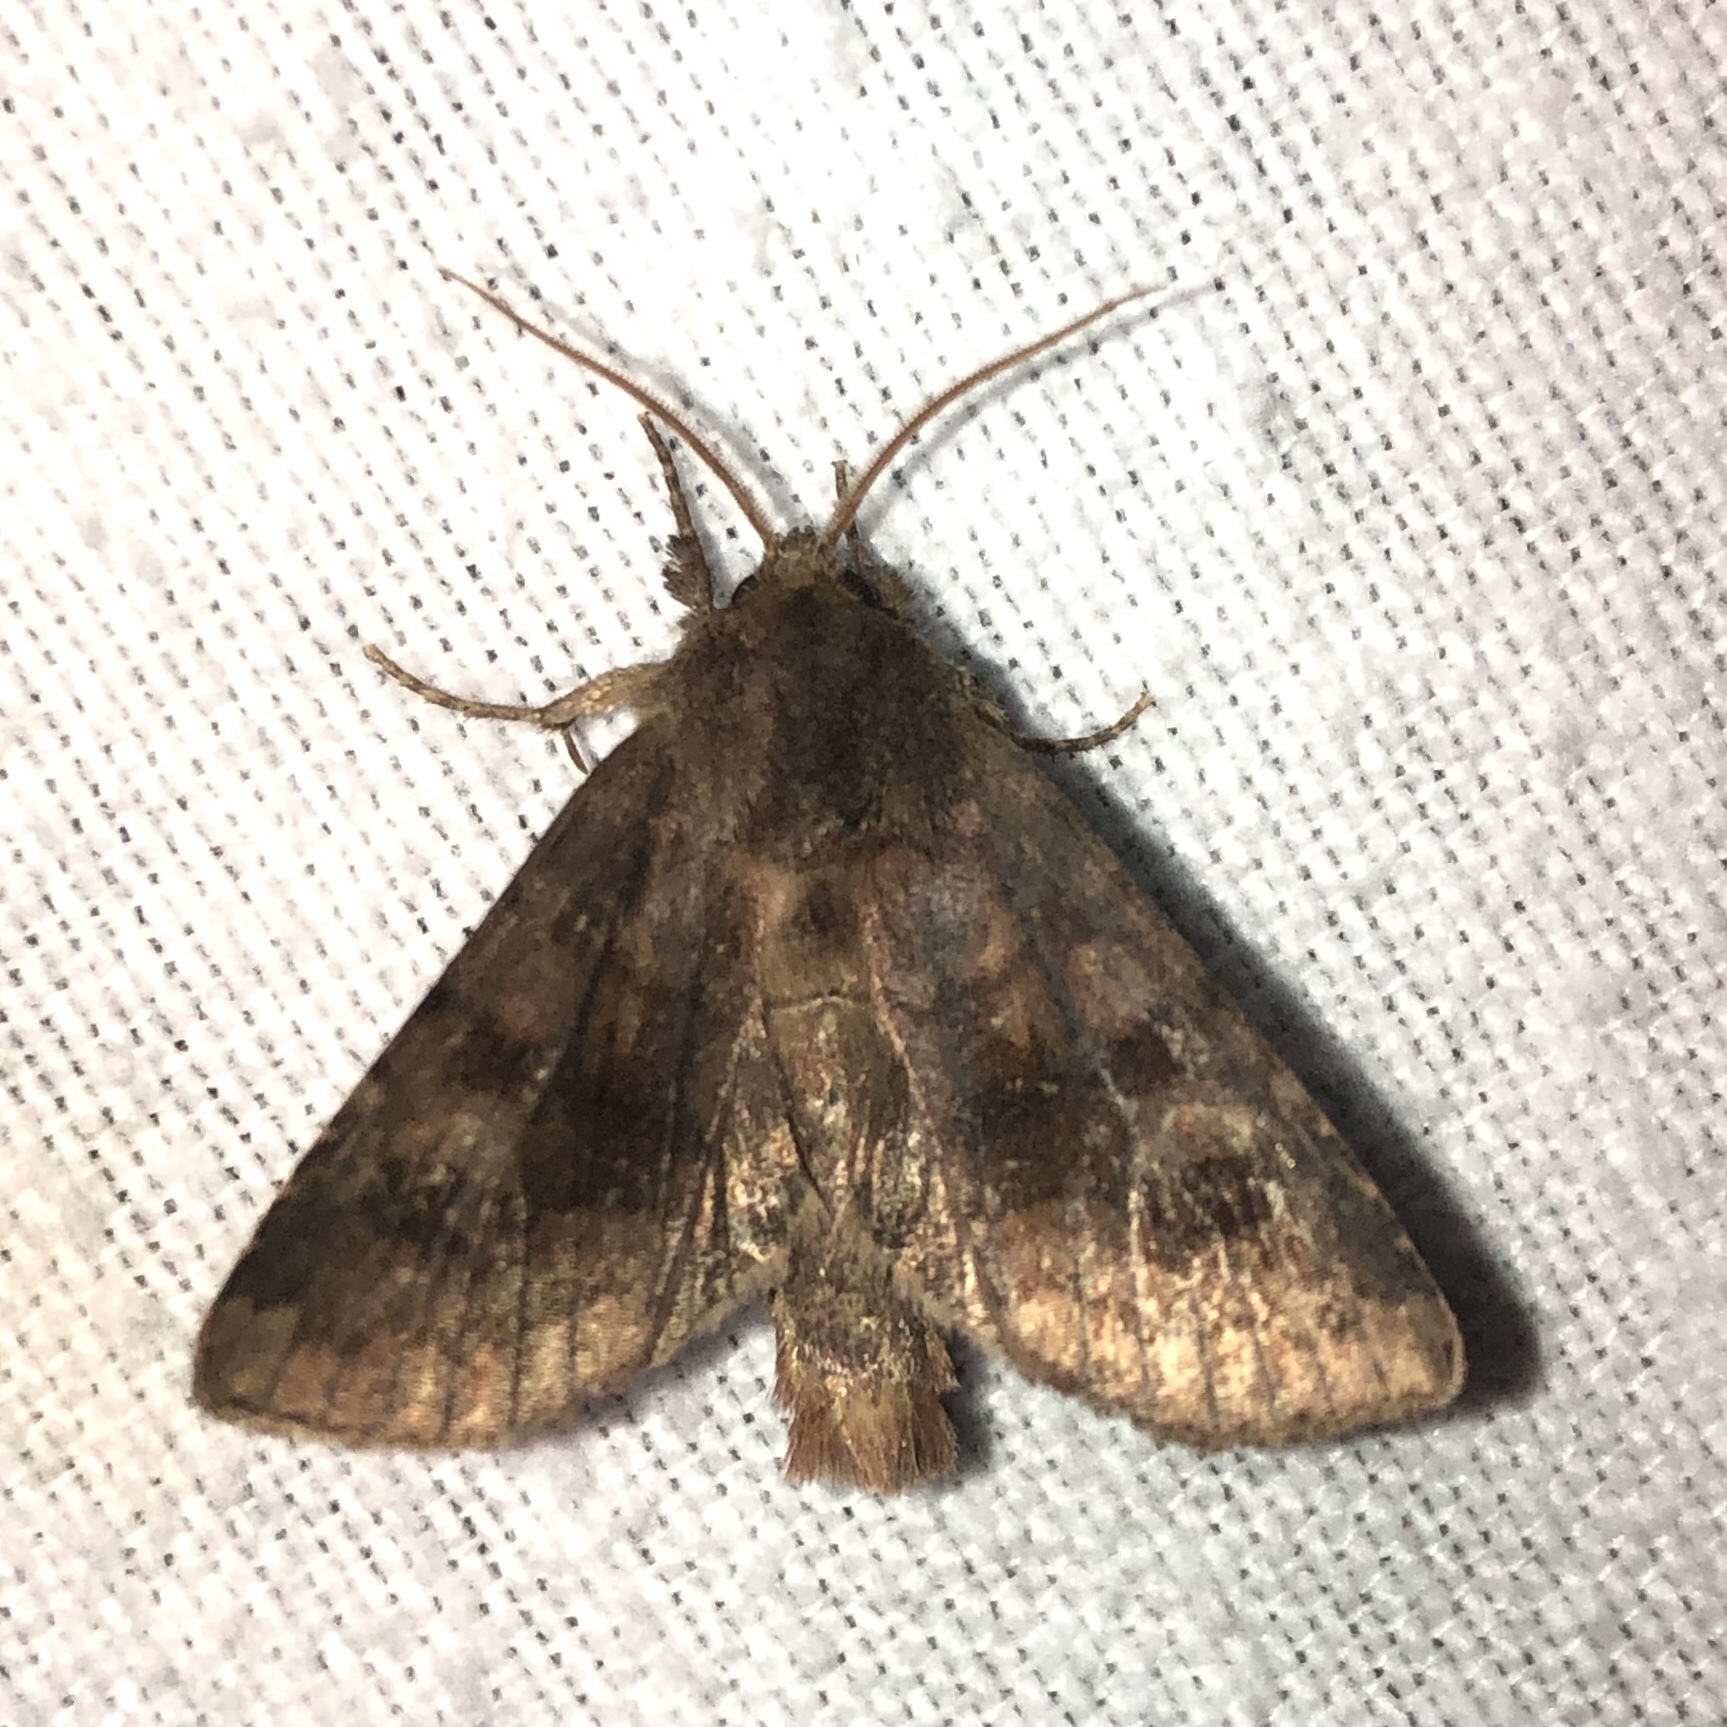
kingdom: Animalia
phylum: Arthropoda
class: Insecta
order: Lepidoptera
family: Noctuidae
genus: Nephelodes
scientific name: Nephelodes minians
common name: Bronzed cutworm
